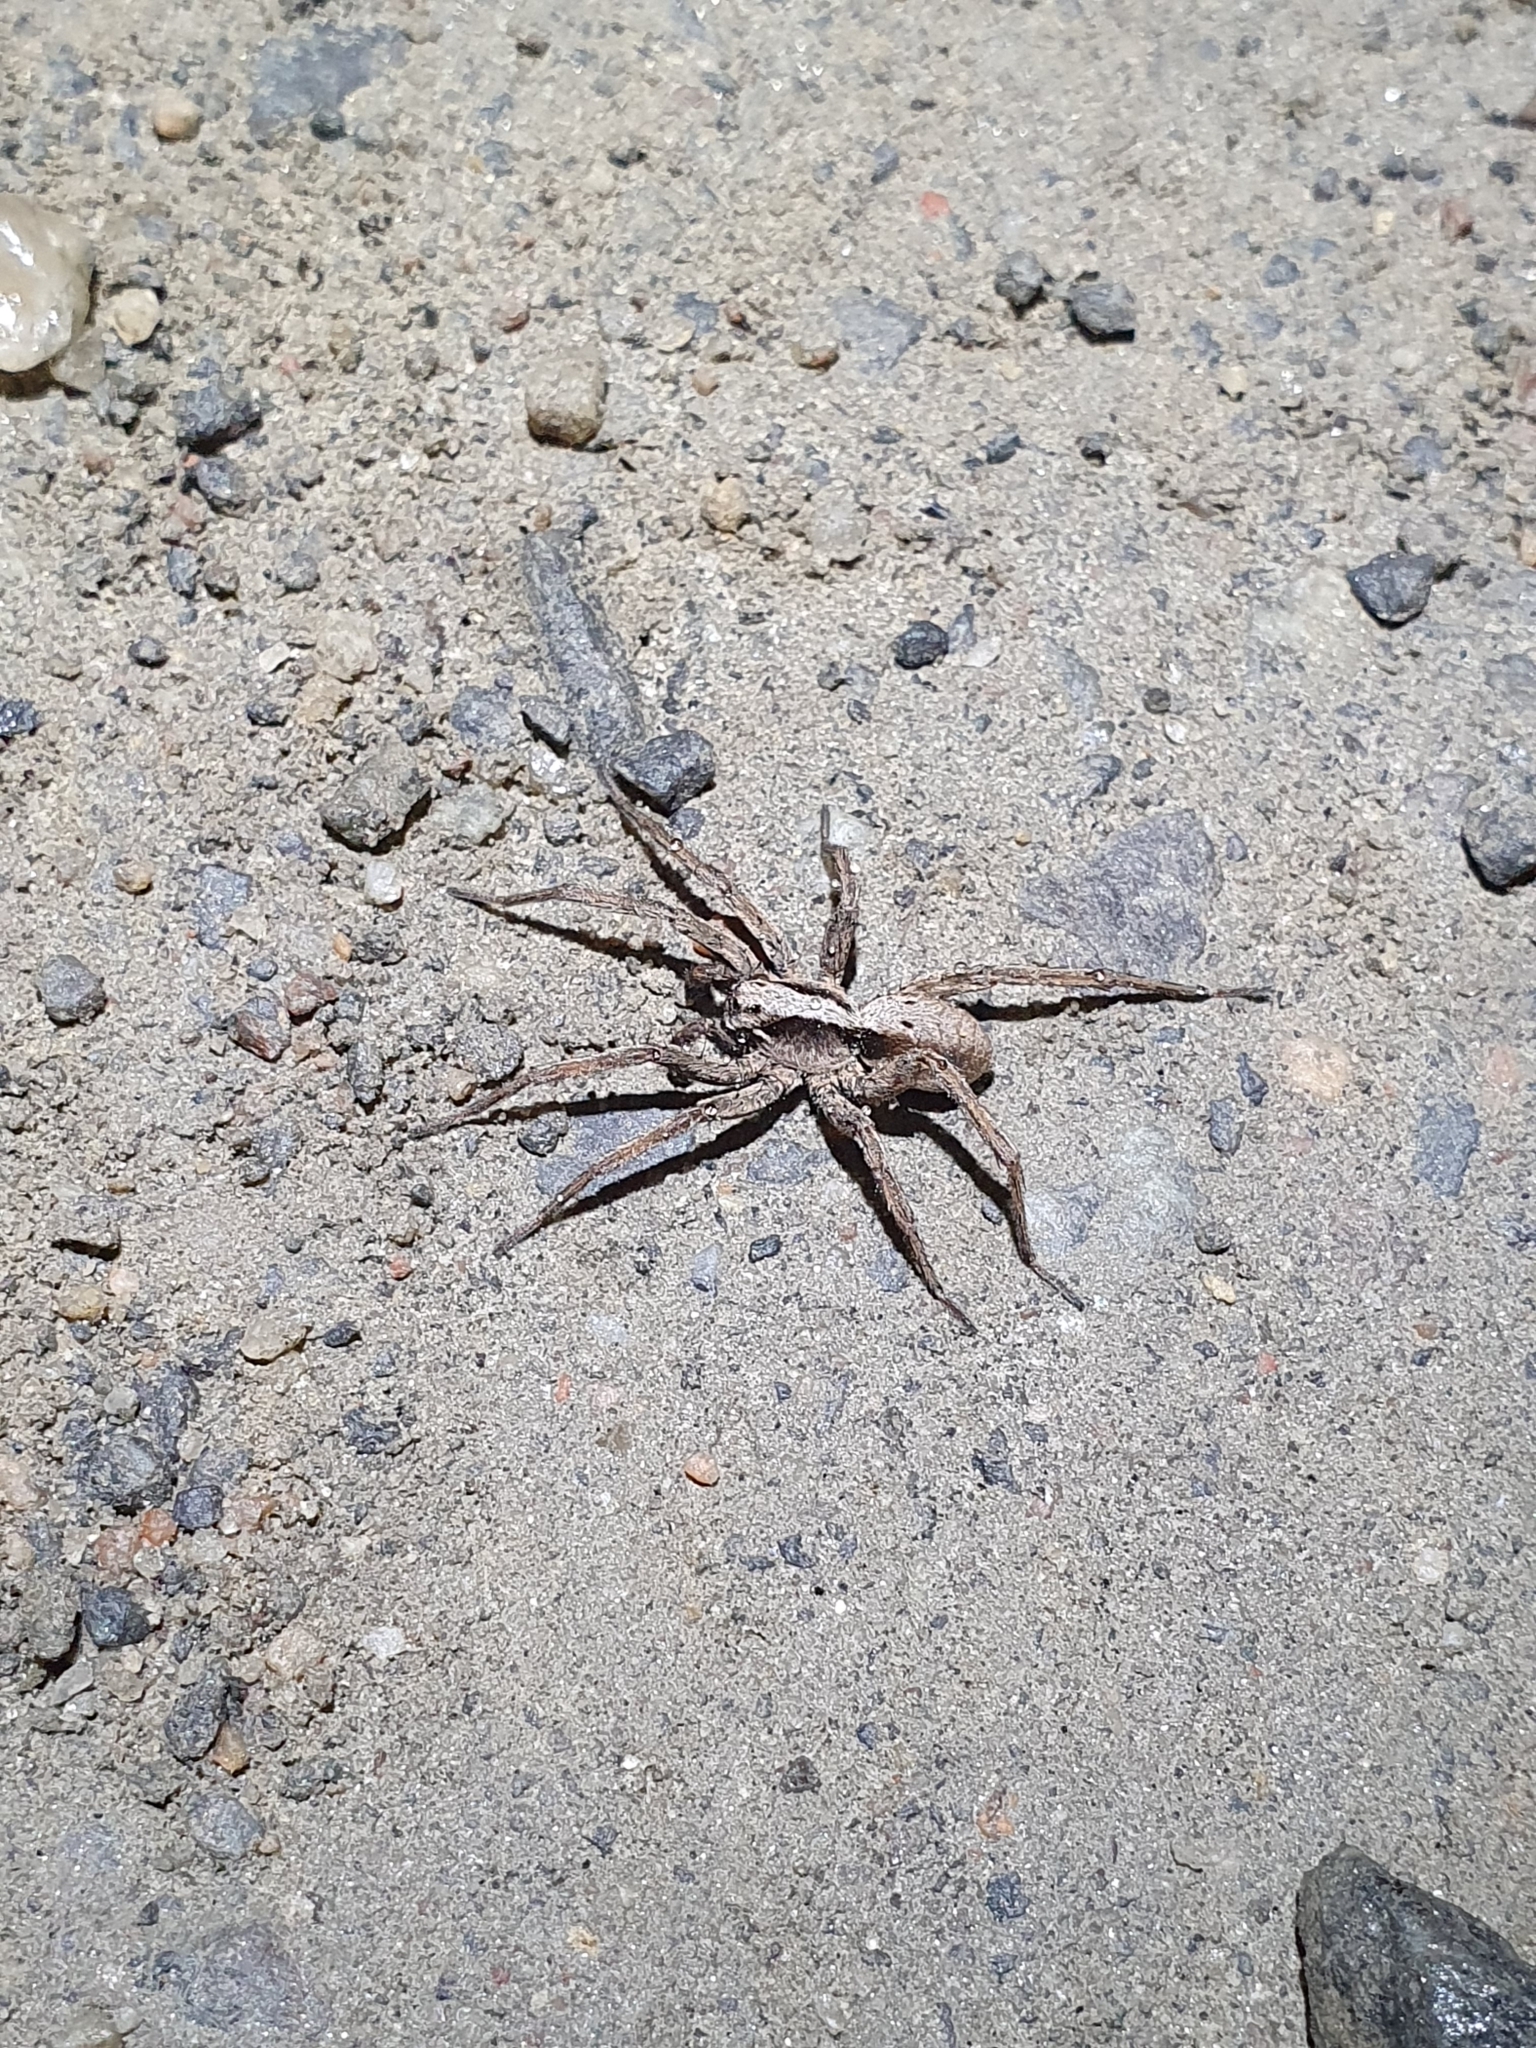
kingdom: Animalia
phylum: Arthropoda
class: Arachnida
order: Araneae
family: Lycosidae
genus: Alopecosa
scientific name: Alopecosa inquilina
